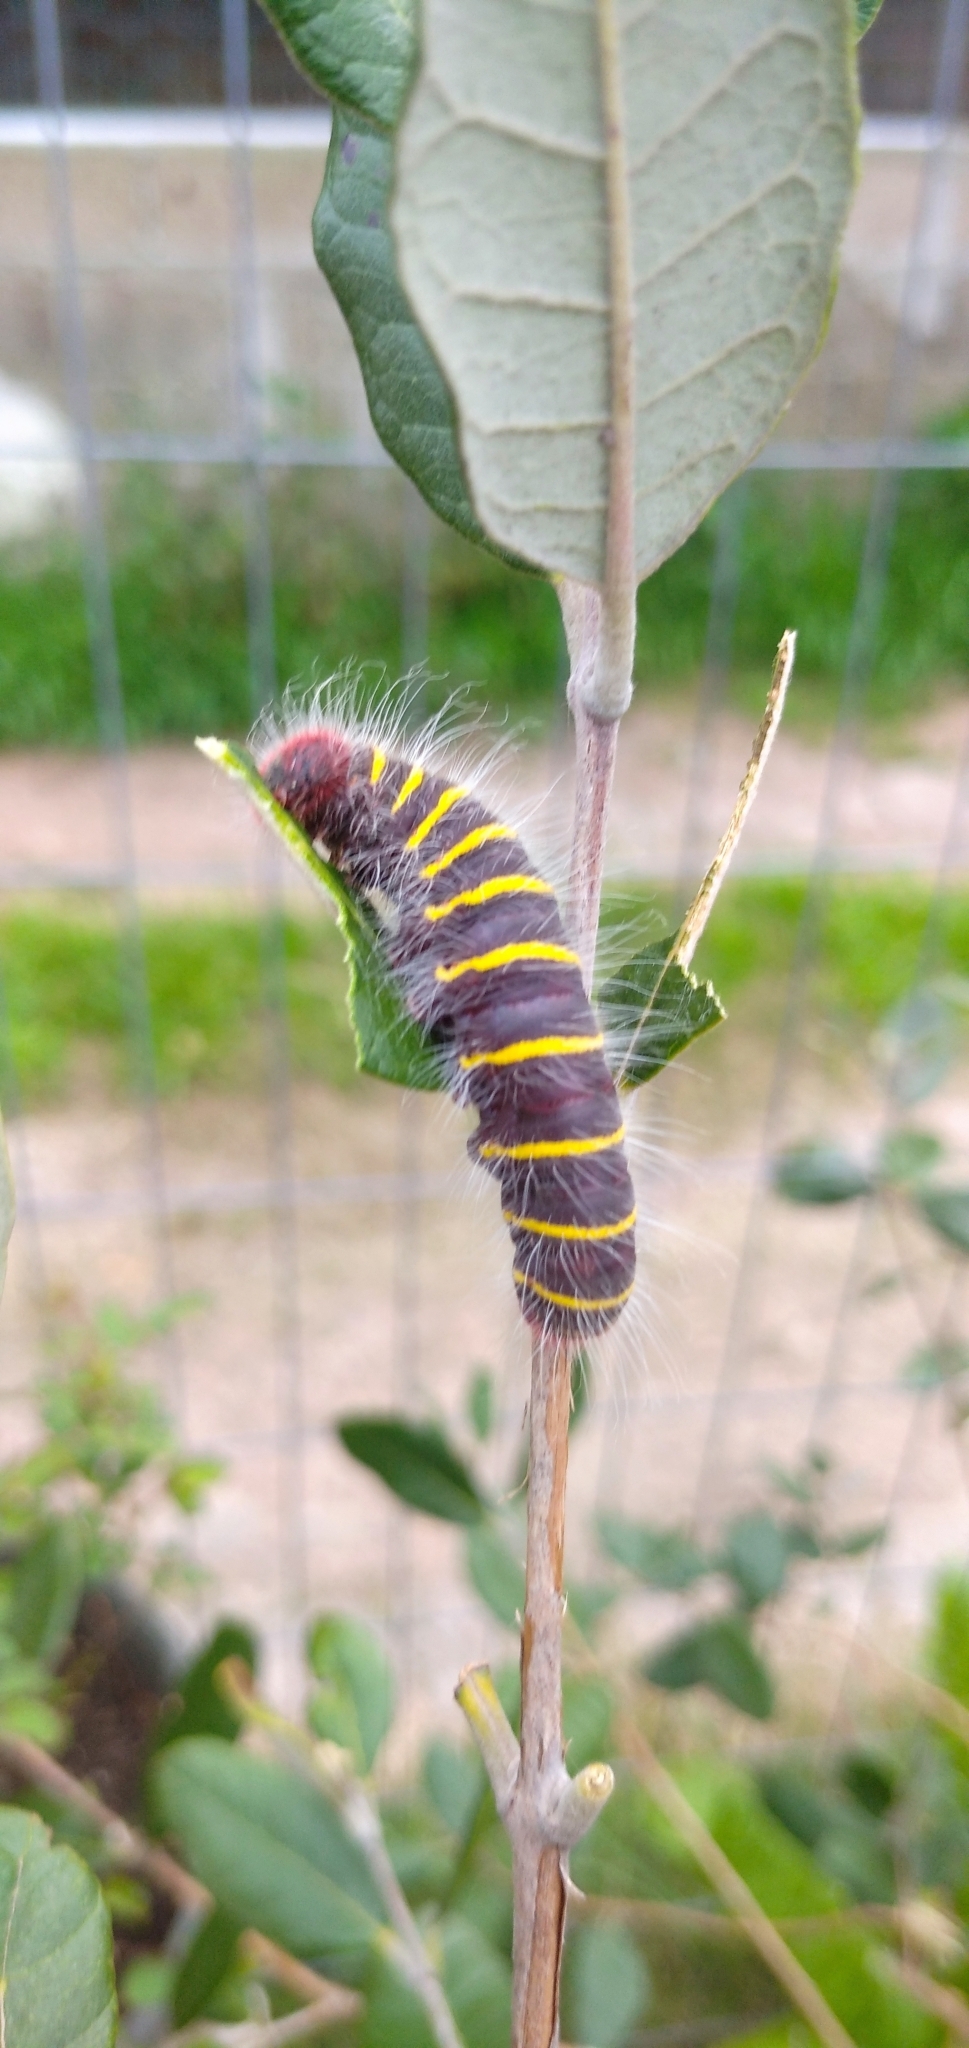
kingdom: Animalia
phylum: Arthropoda
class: Insecta
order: Lepidoptera
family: Hesperiidae
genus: Pyrrhopyge
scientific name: Pyrrhopyge charybdis
